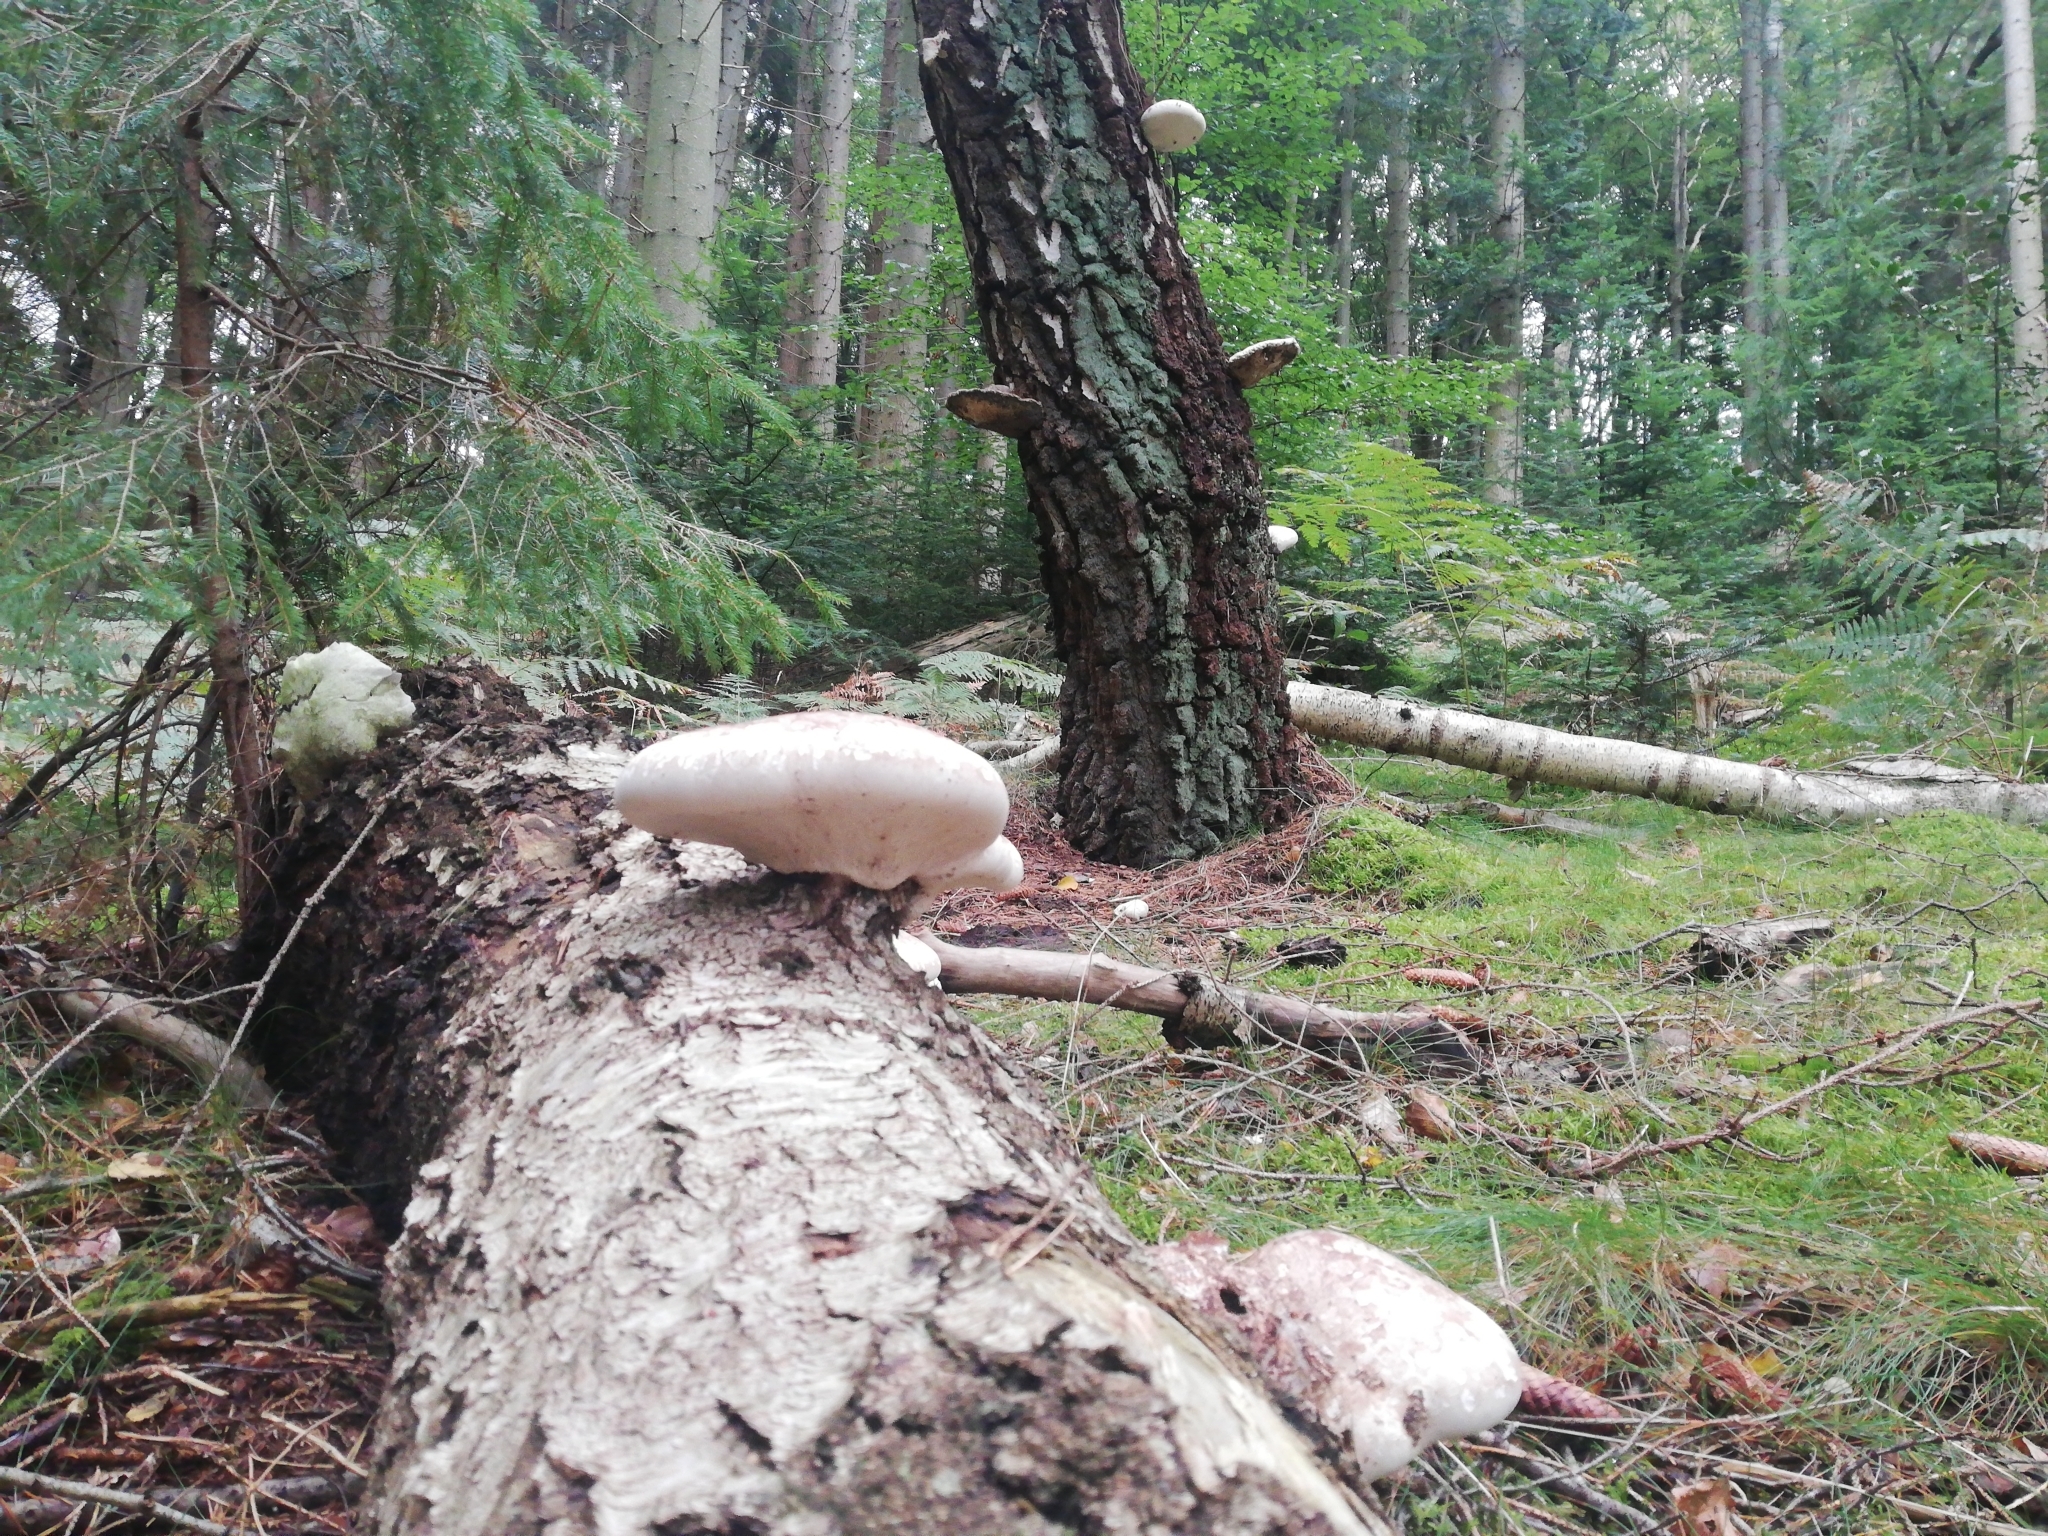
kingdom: Fungi
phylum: Basidiomycota
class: Agaricomycetes
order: Polyporales
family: Fomitopsidaceae
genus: Fomitopsis
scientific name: Fomitopsis betulina
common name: Birch polypore
